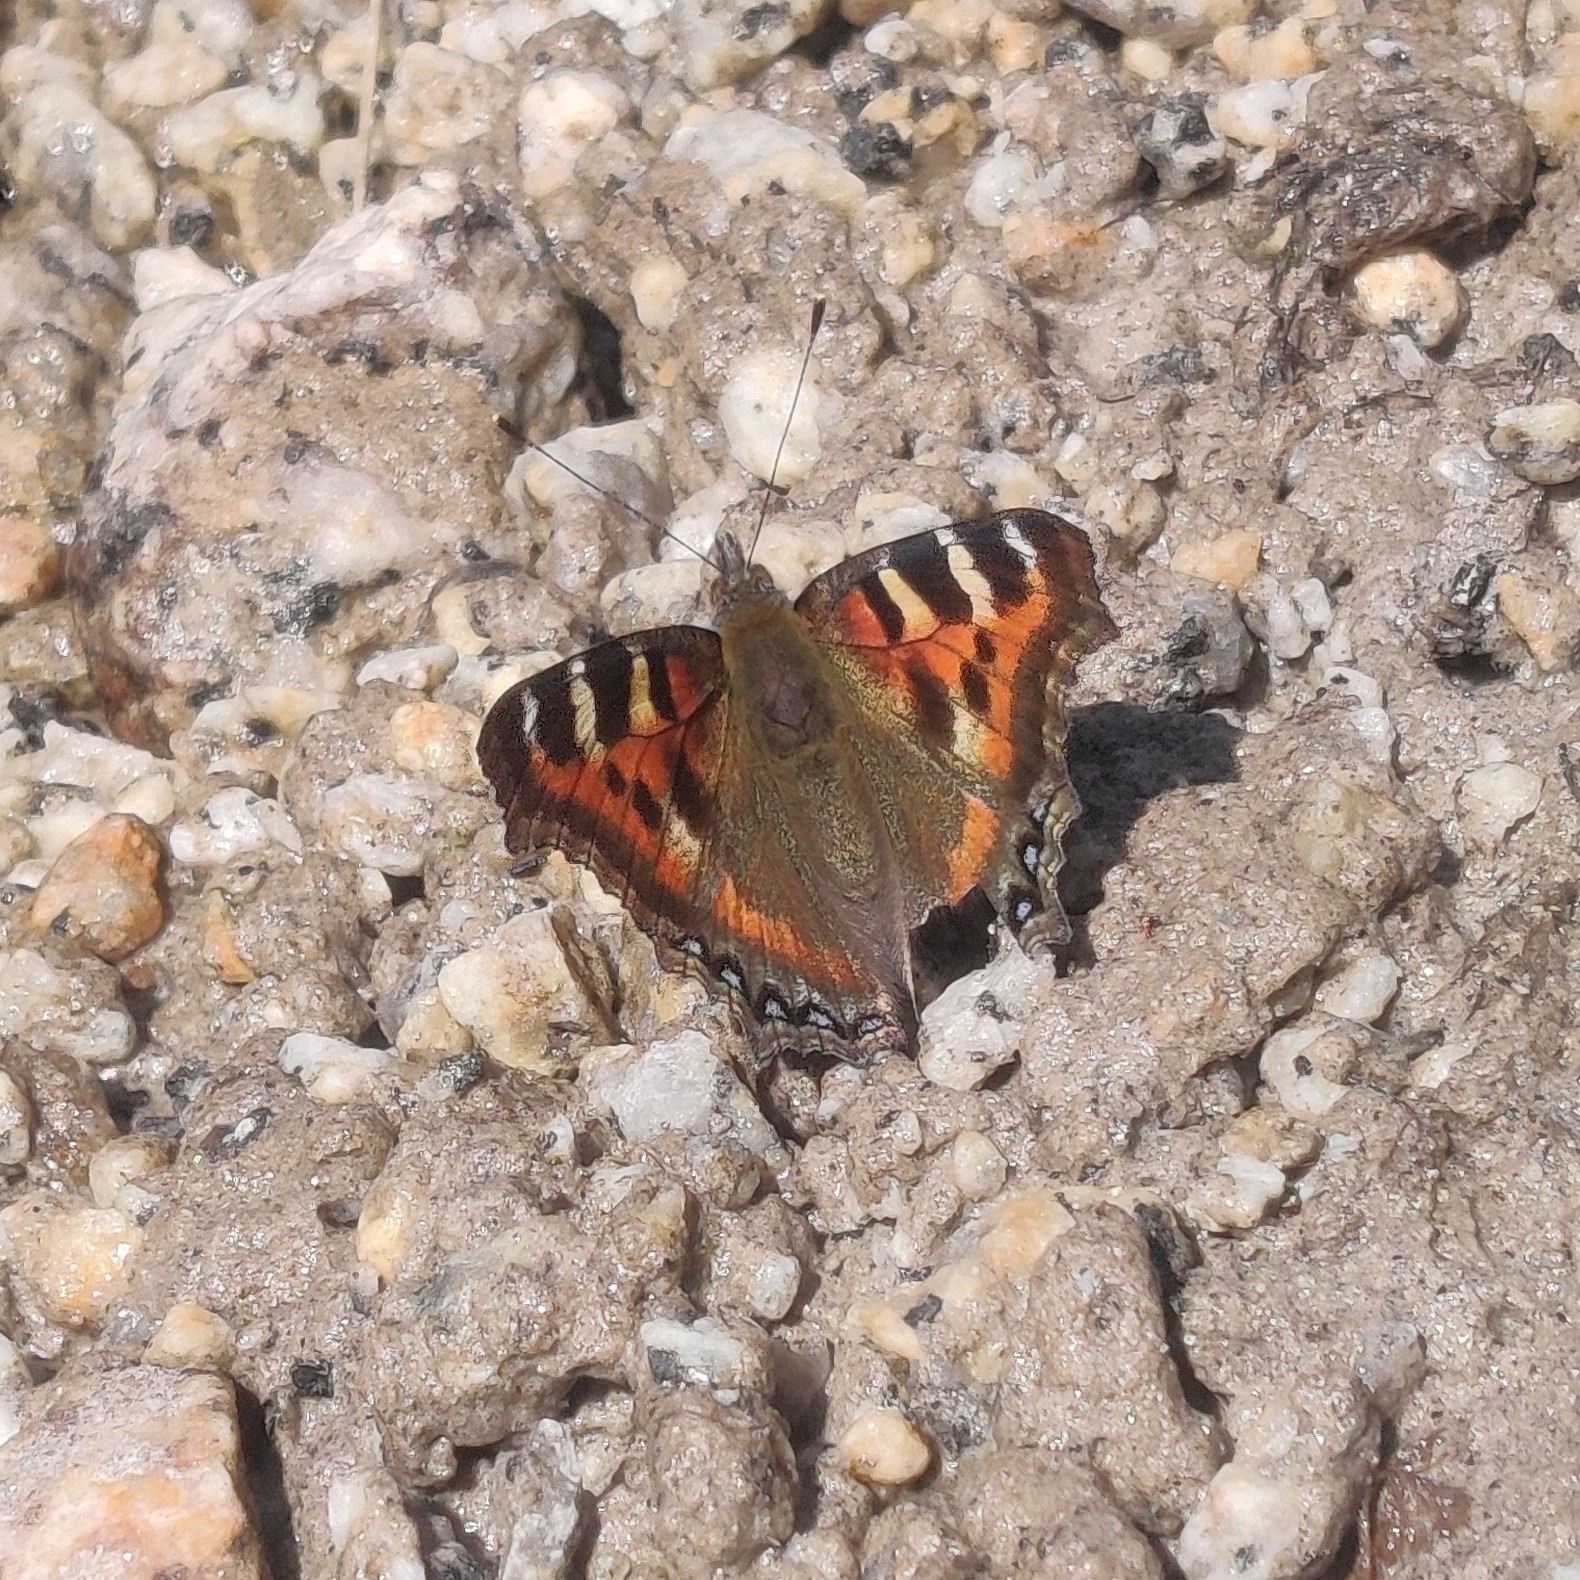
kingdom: Animalia
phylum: Arthropoda
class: Insecta
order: Lepidoptera
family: Nymphalidae
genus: Aglais
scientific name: Aglais caschmirensis
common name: Indian tortoiseshell
